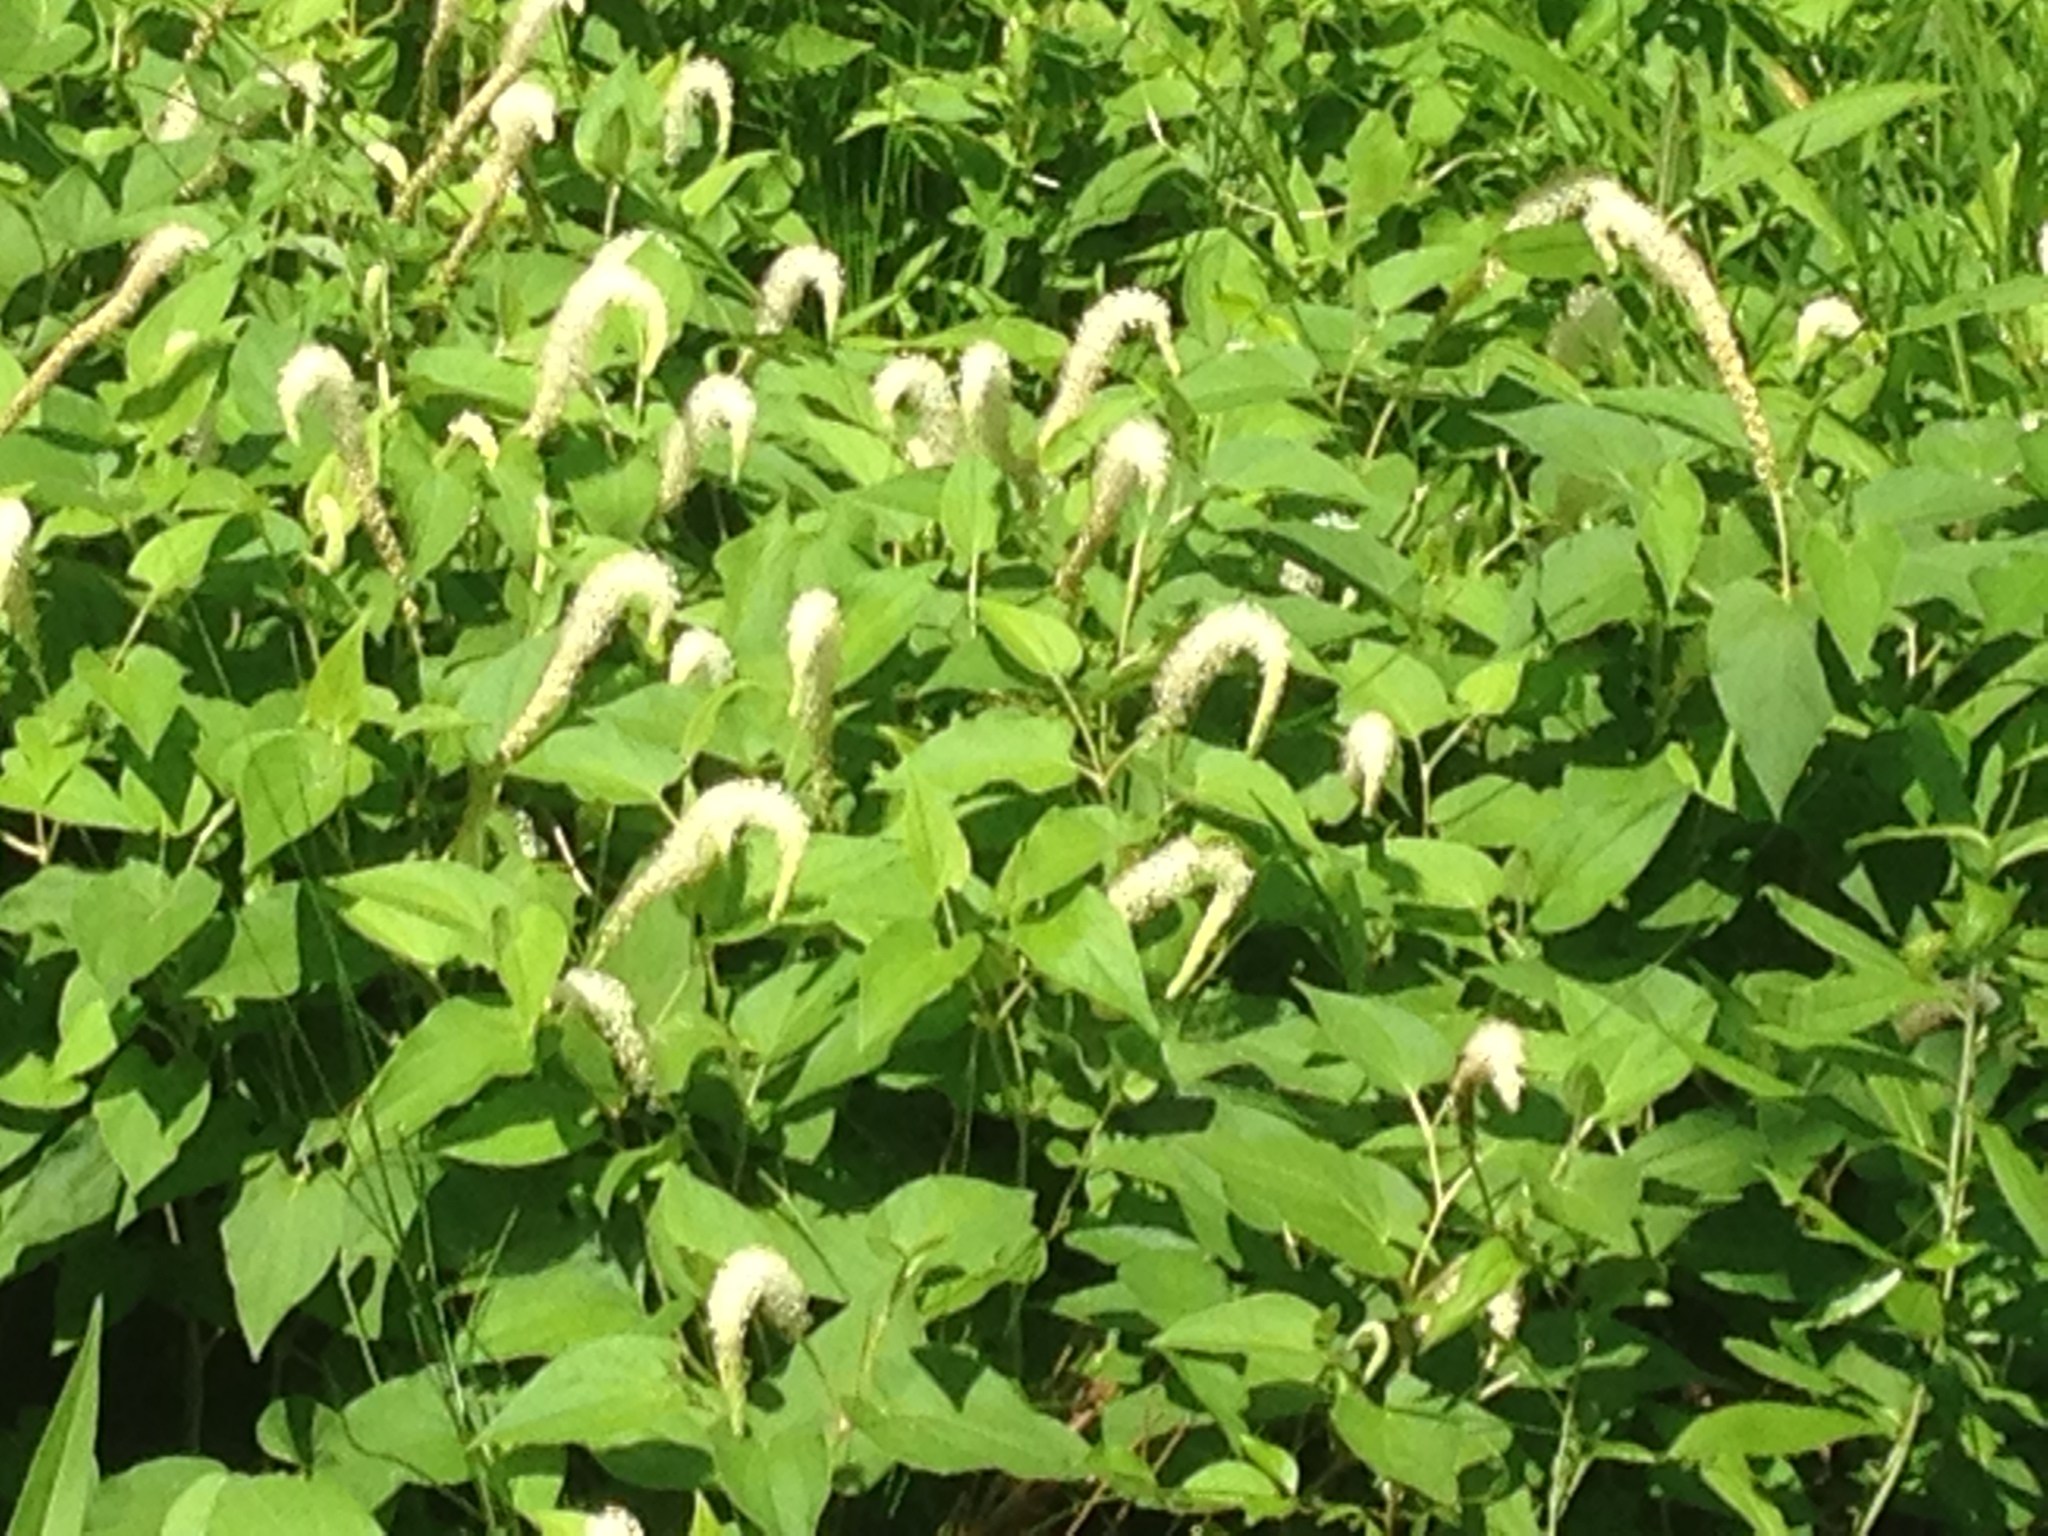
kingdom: Plantae
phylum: Tracheophyta
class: Magnoliopsida
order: Piperales
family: Saururaceae
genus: Saururus
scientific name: Saururus cernuus
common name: Lizard's-tail
